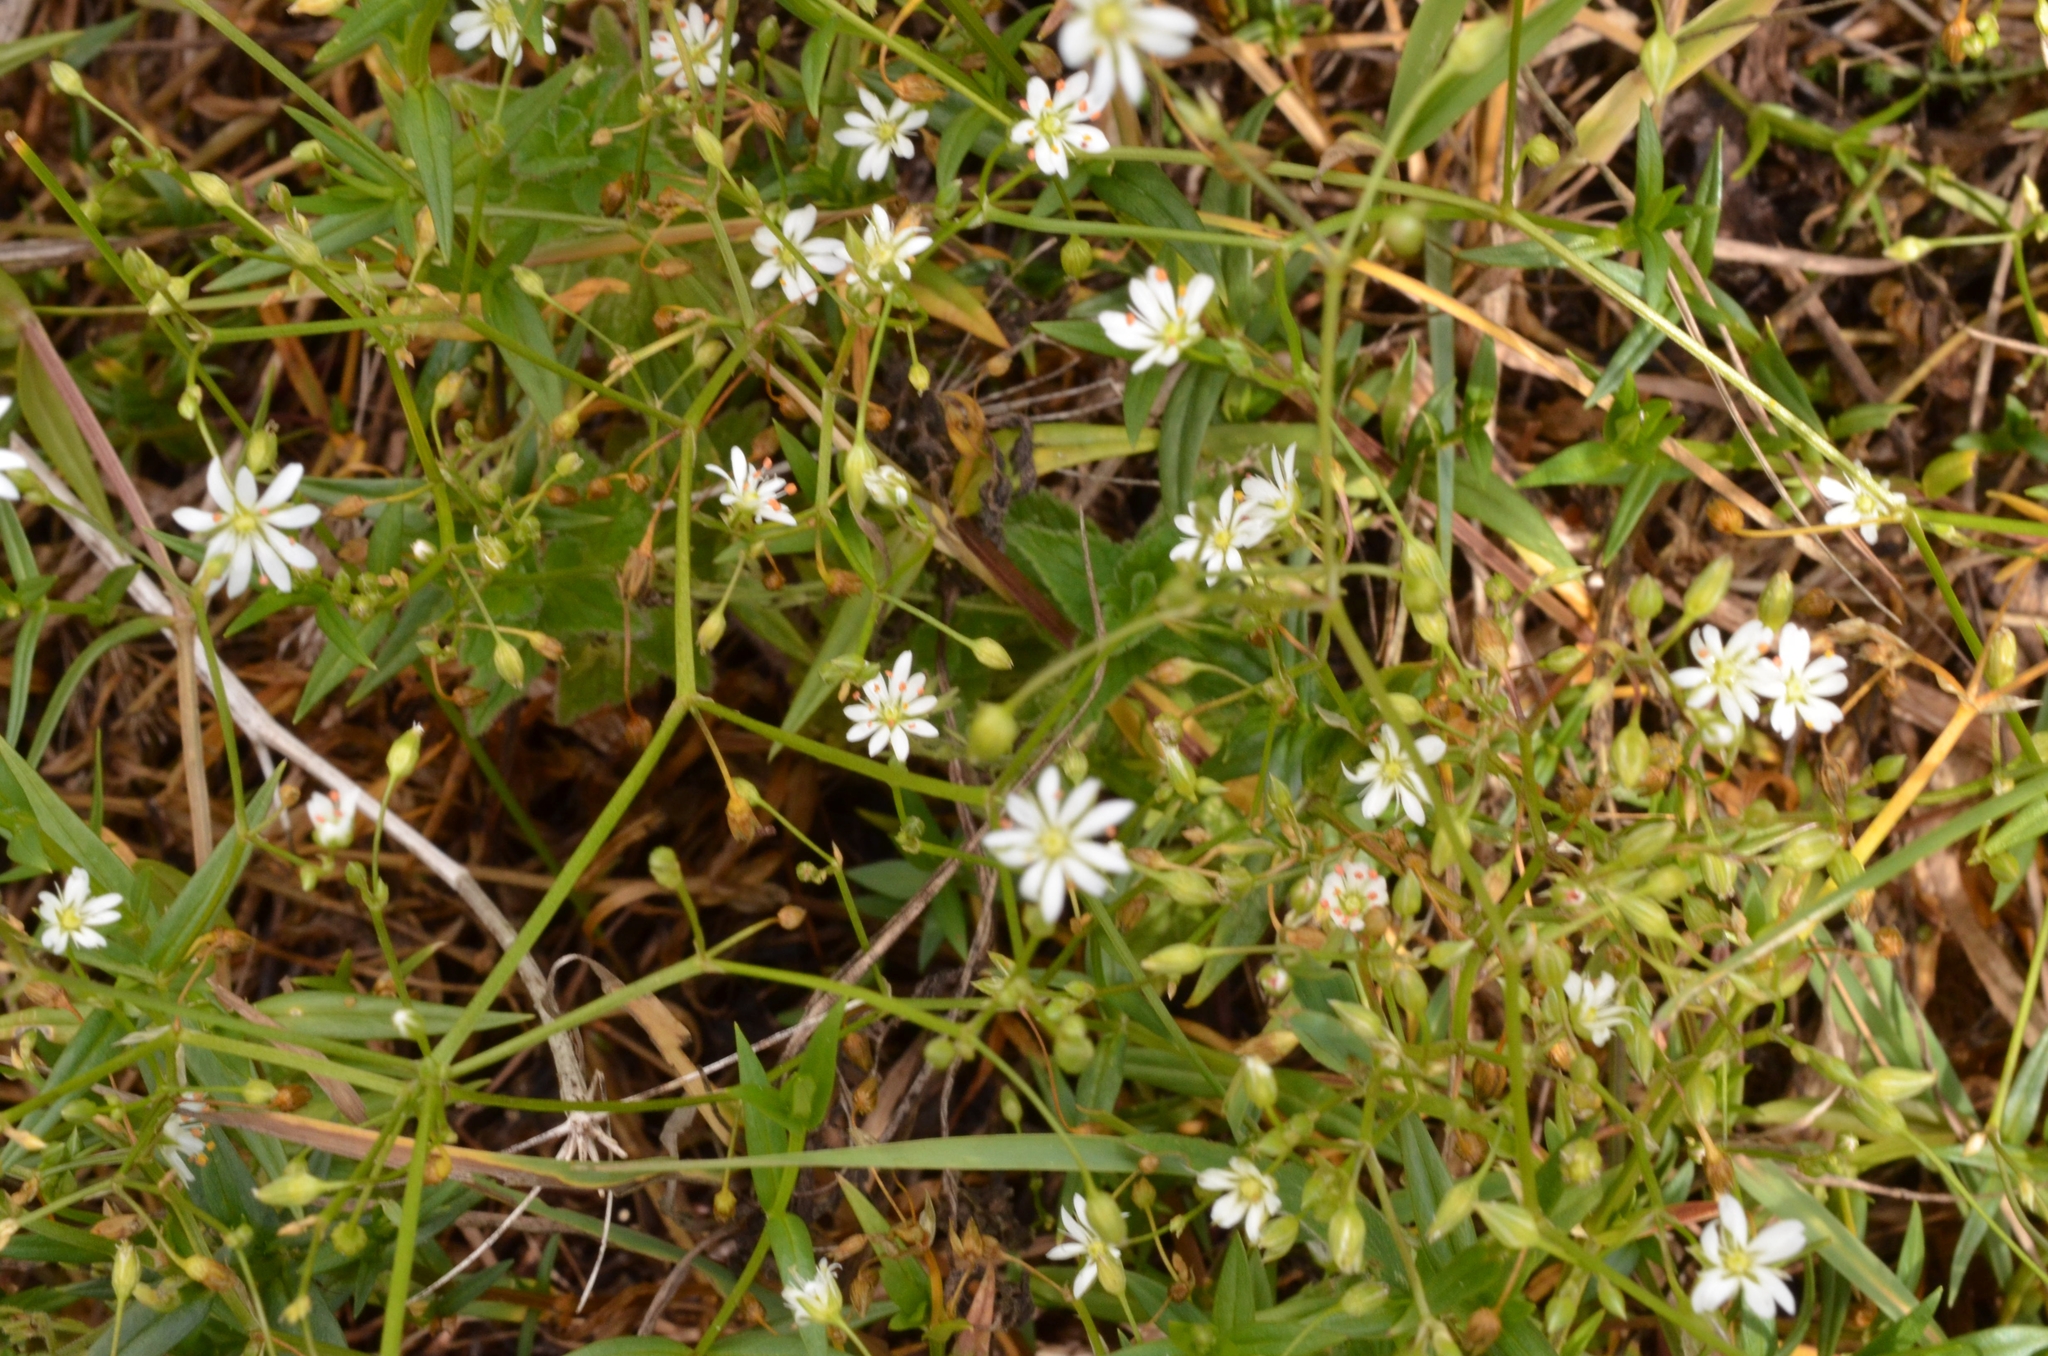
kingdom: Plantae
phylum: Tracheophyta
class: Magnoliopsida
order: Caryophyllales
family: Caryophyllaceae
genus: Stellaria
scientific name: Stellaria graminea
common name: Grass-like starwort
